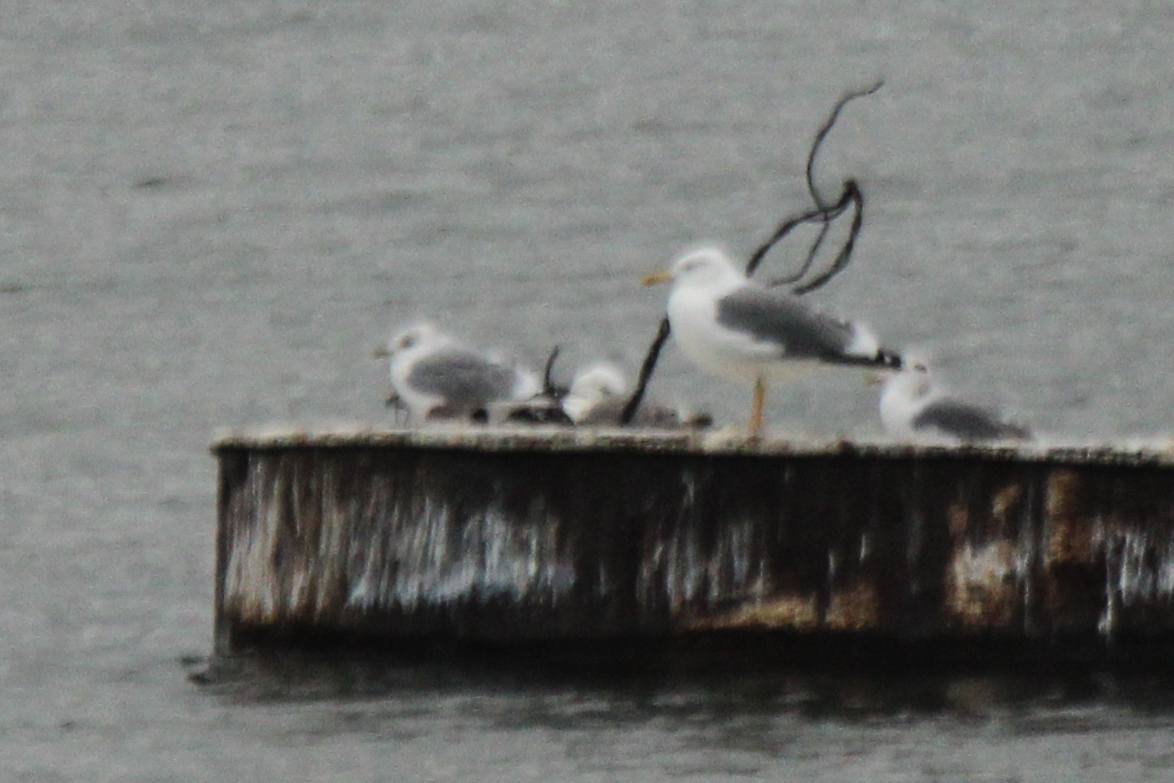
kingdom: Animalia
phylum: Chordata
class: Aves
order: Charadriiformes
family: Laridae
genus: Larus
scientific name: Larus fuscus
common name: Lesser black-backed gull
